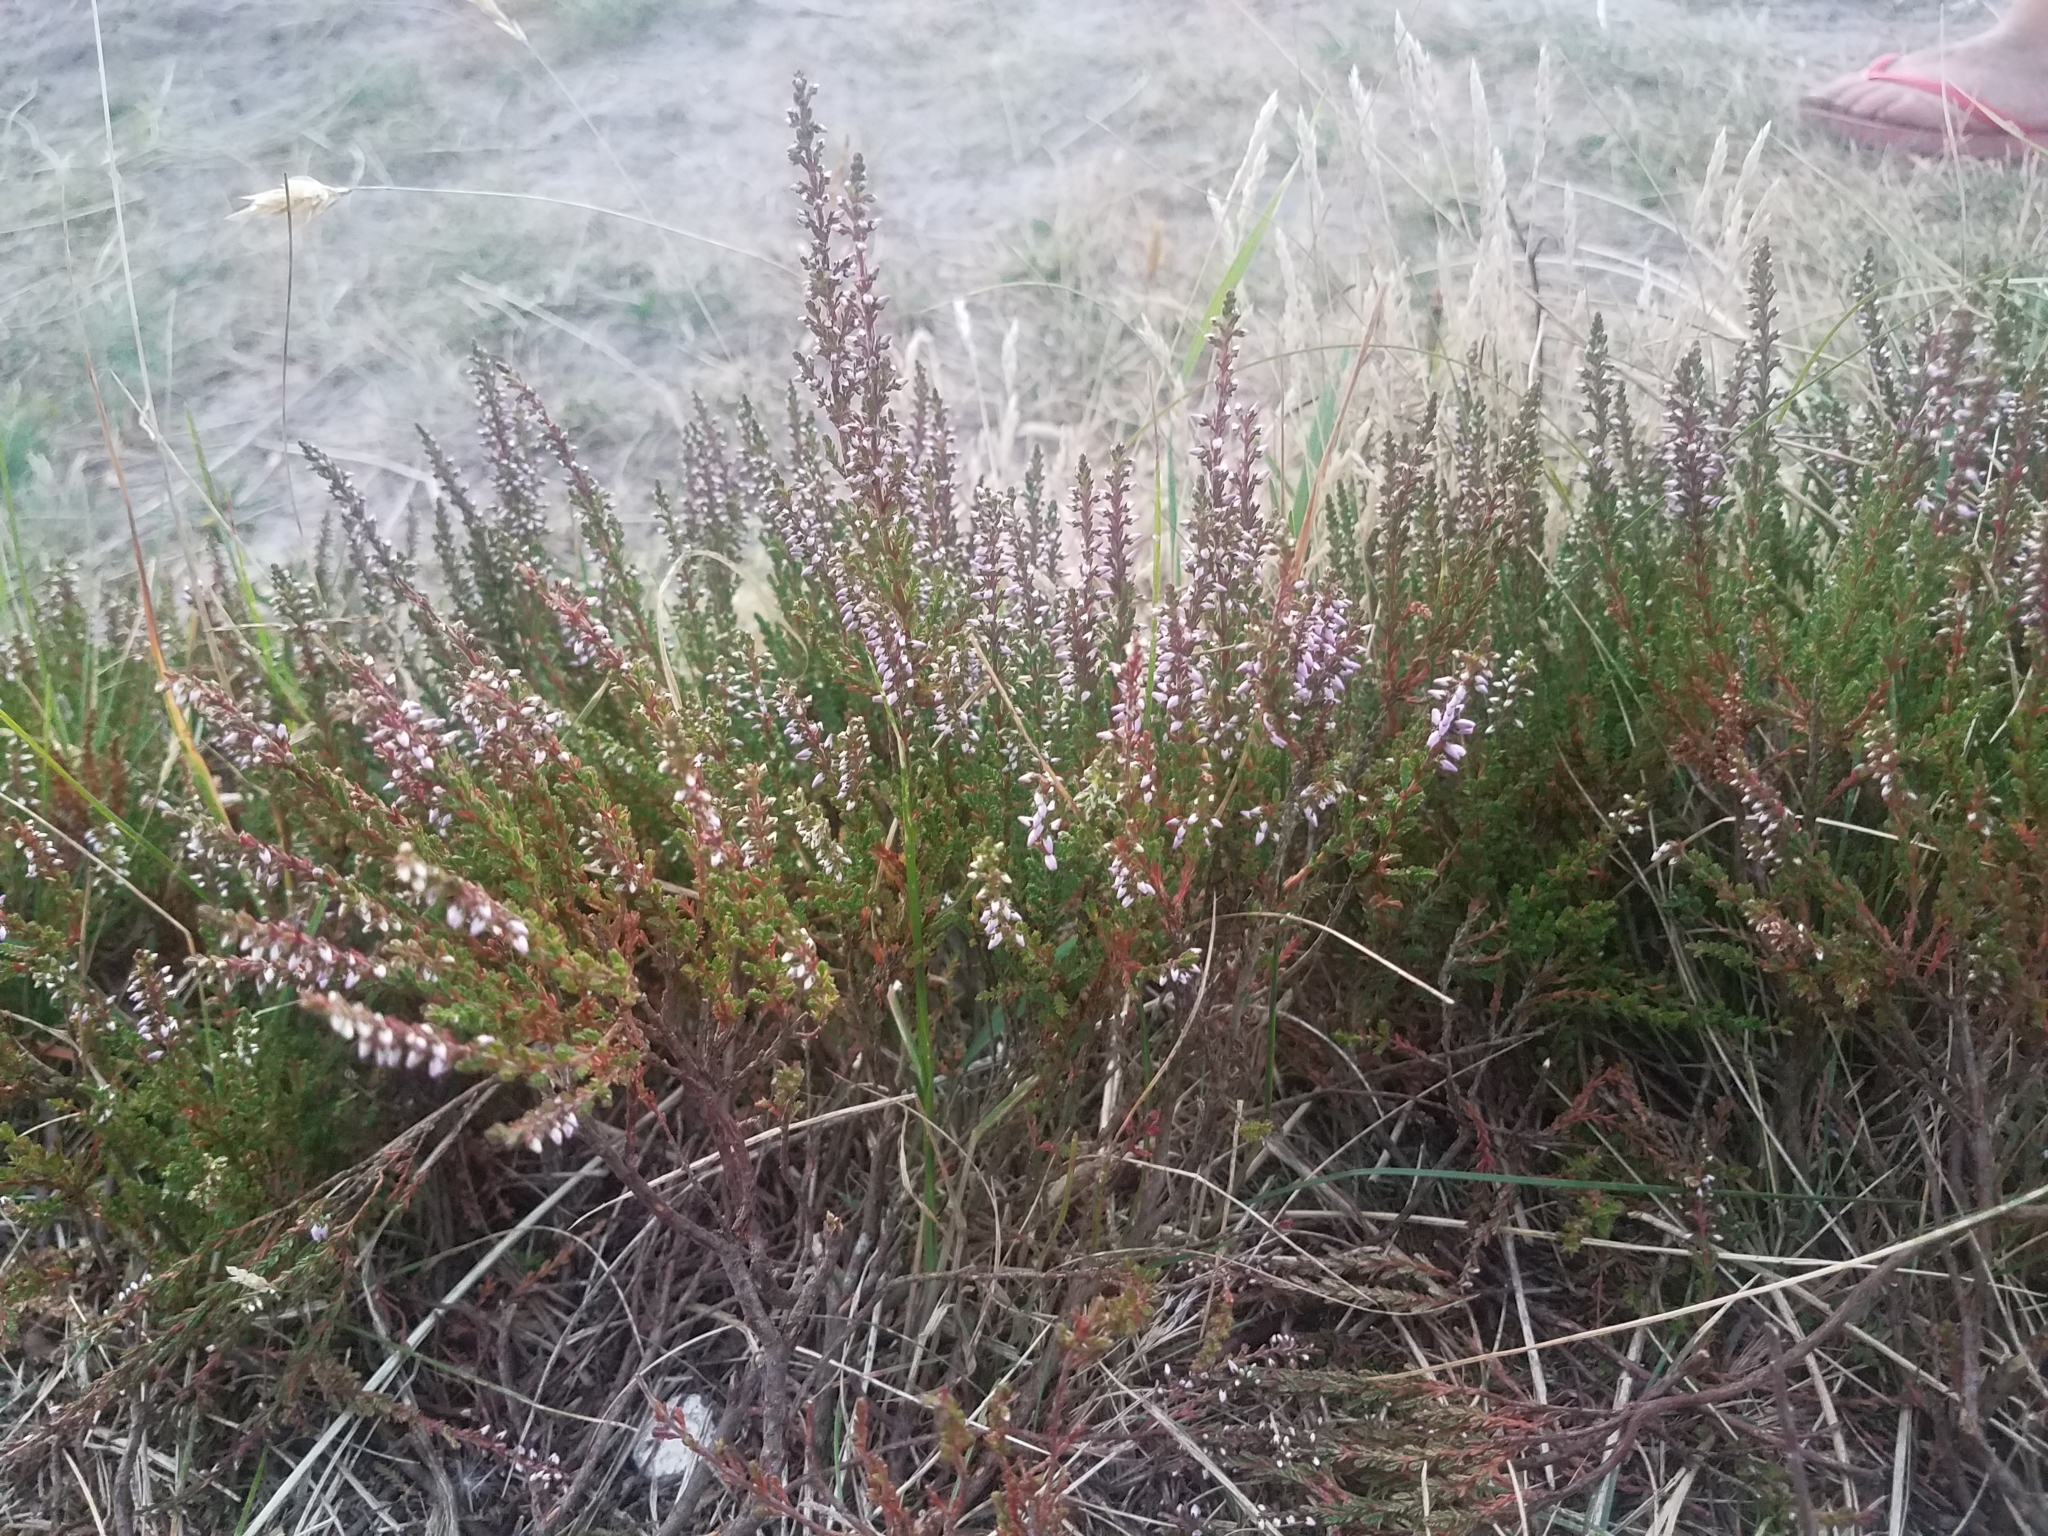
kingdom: Plantae
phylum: Tracheophyta
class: Magnoliopsida
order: Ericales
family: Ericaceae
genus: Calluna
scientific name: Calluna vulgaris
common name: Heather
